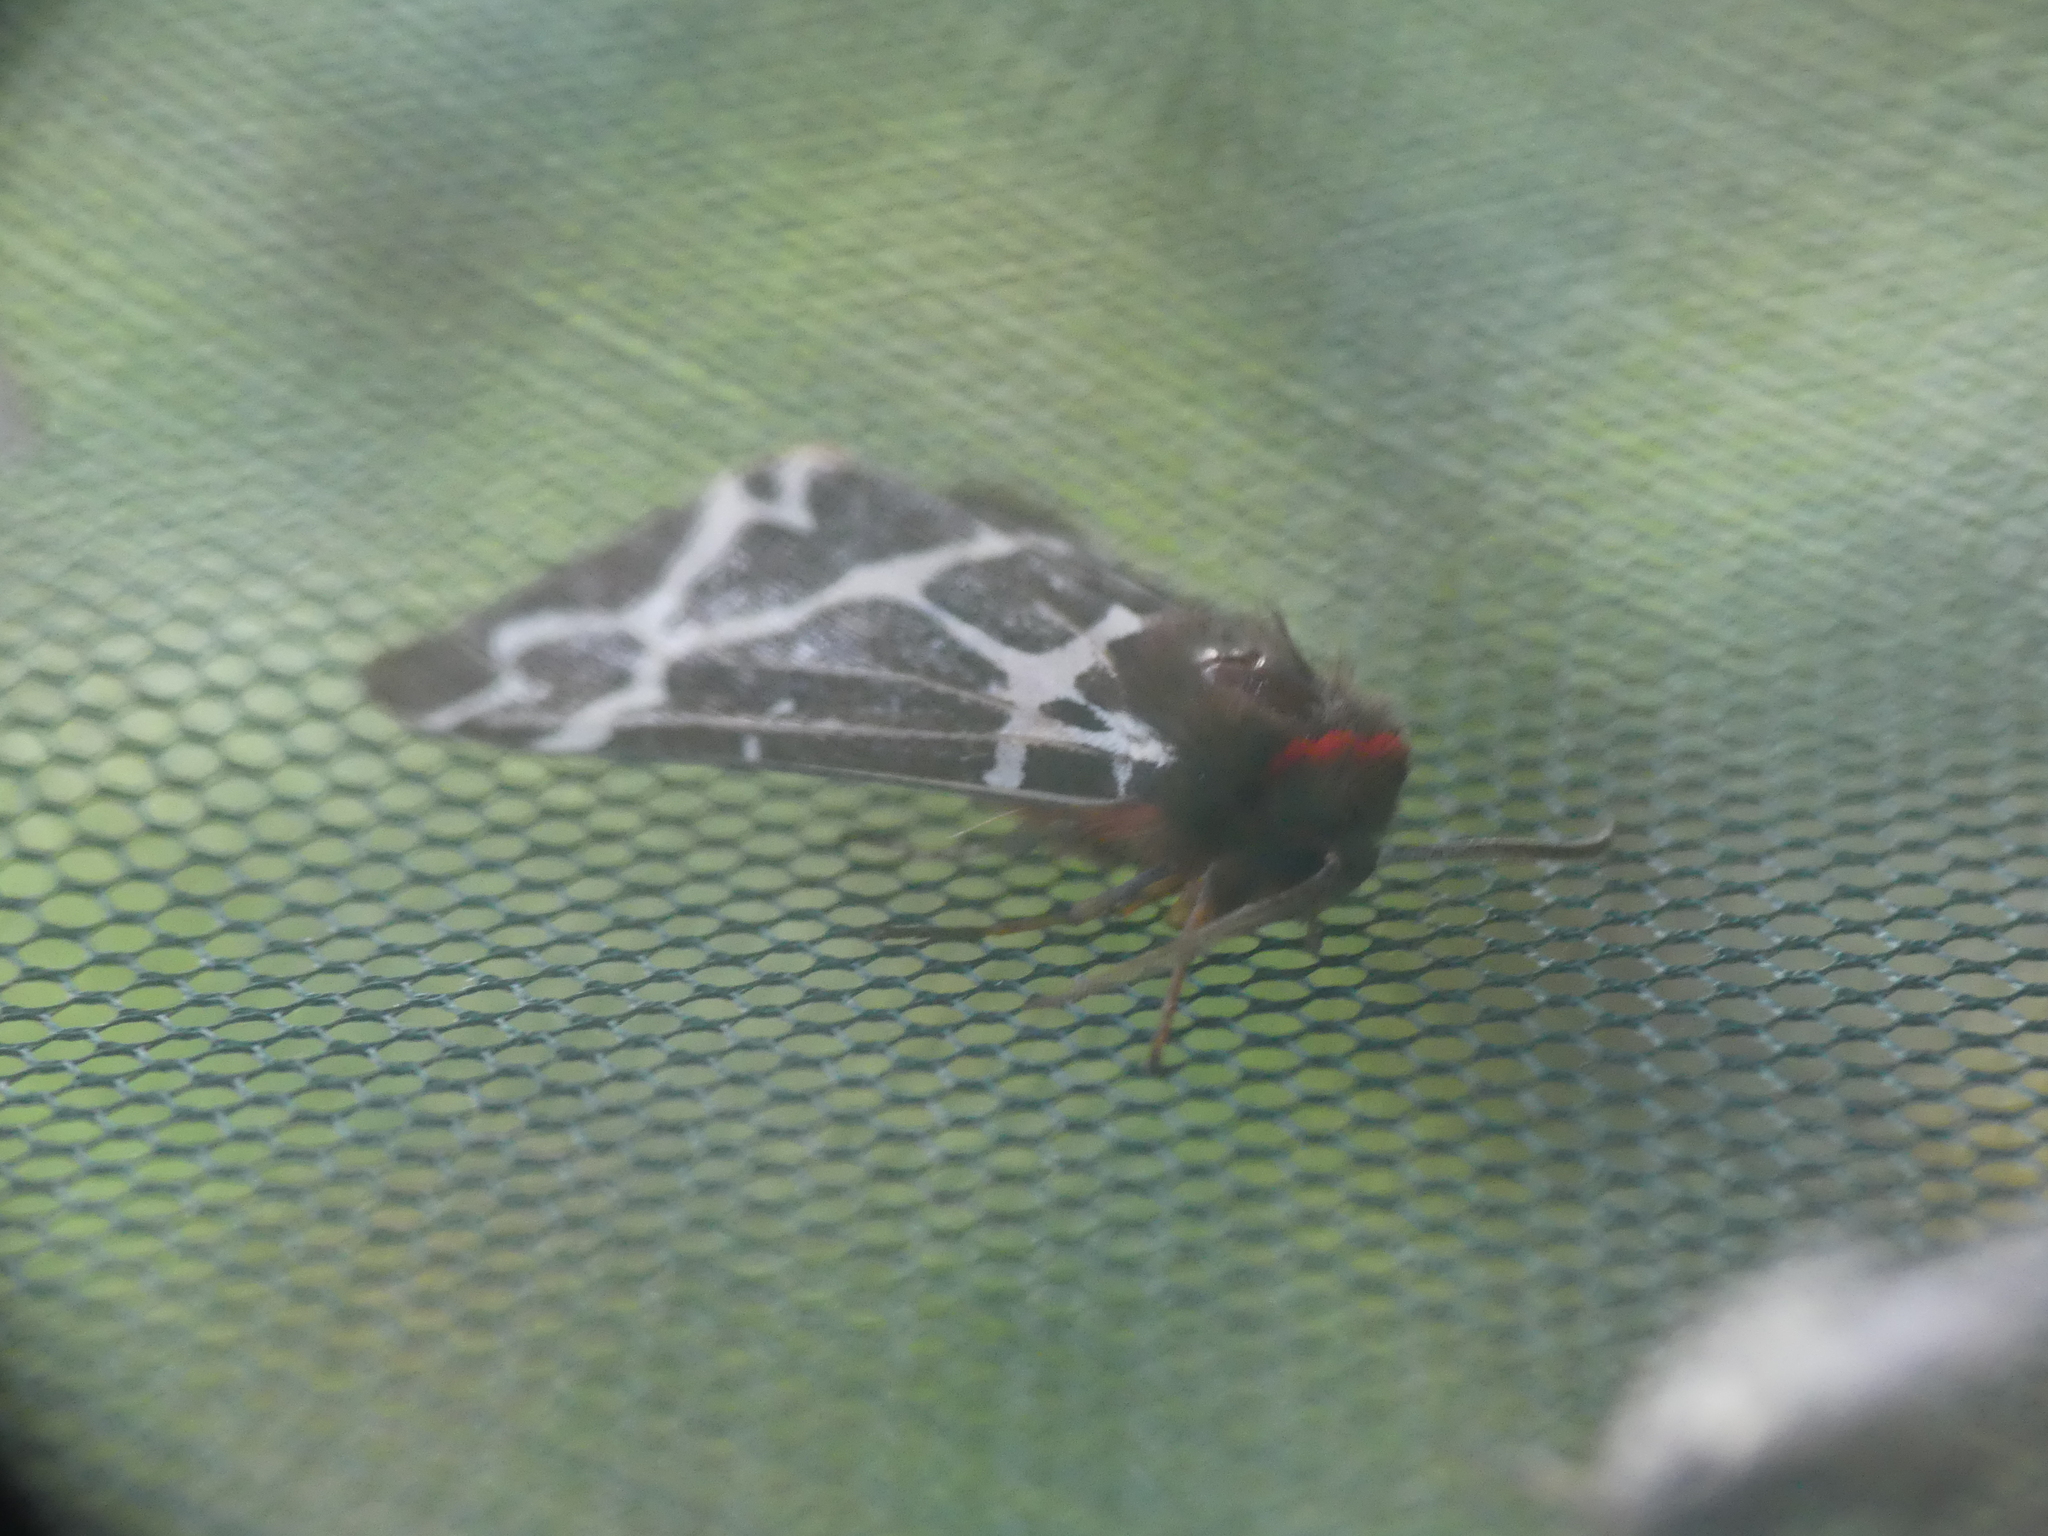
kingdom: Animalia
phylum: Arthropoda
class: Insecta
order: Lepidoptera
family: Erebidae
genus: Arctia
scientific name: Arctia caja
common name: Garden tiger
